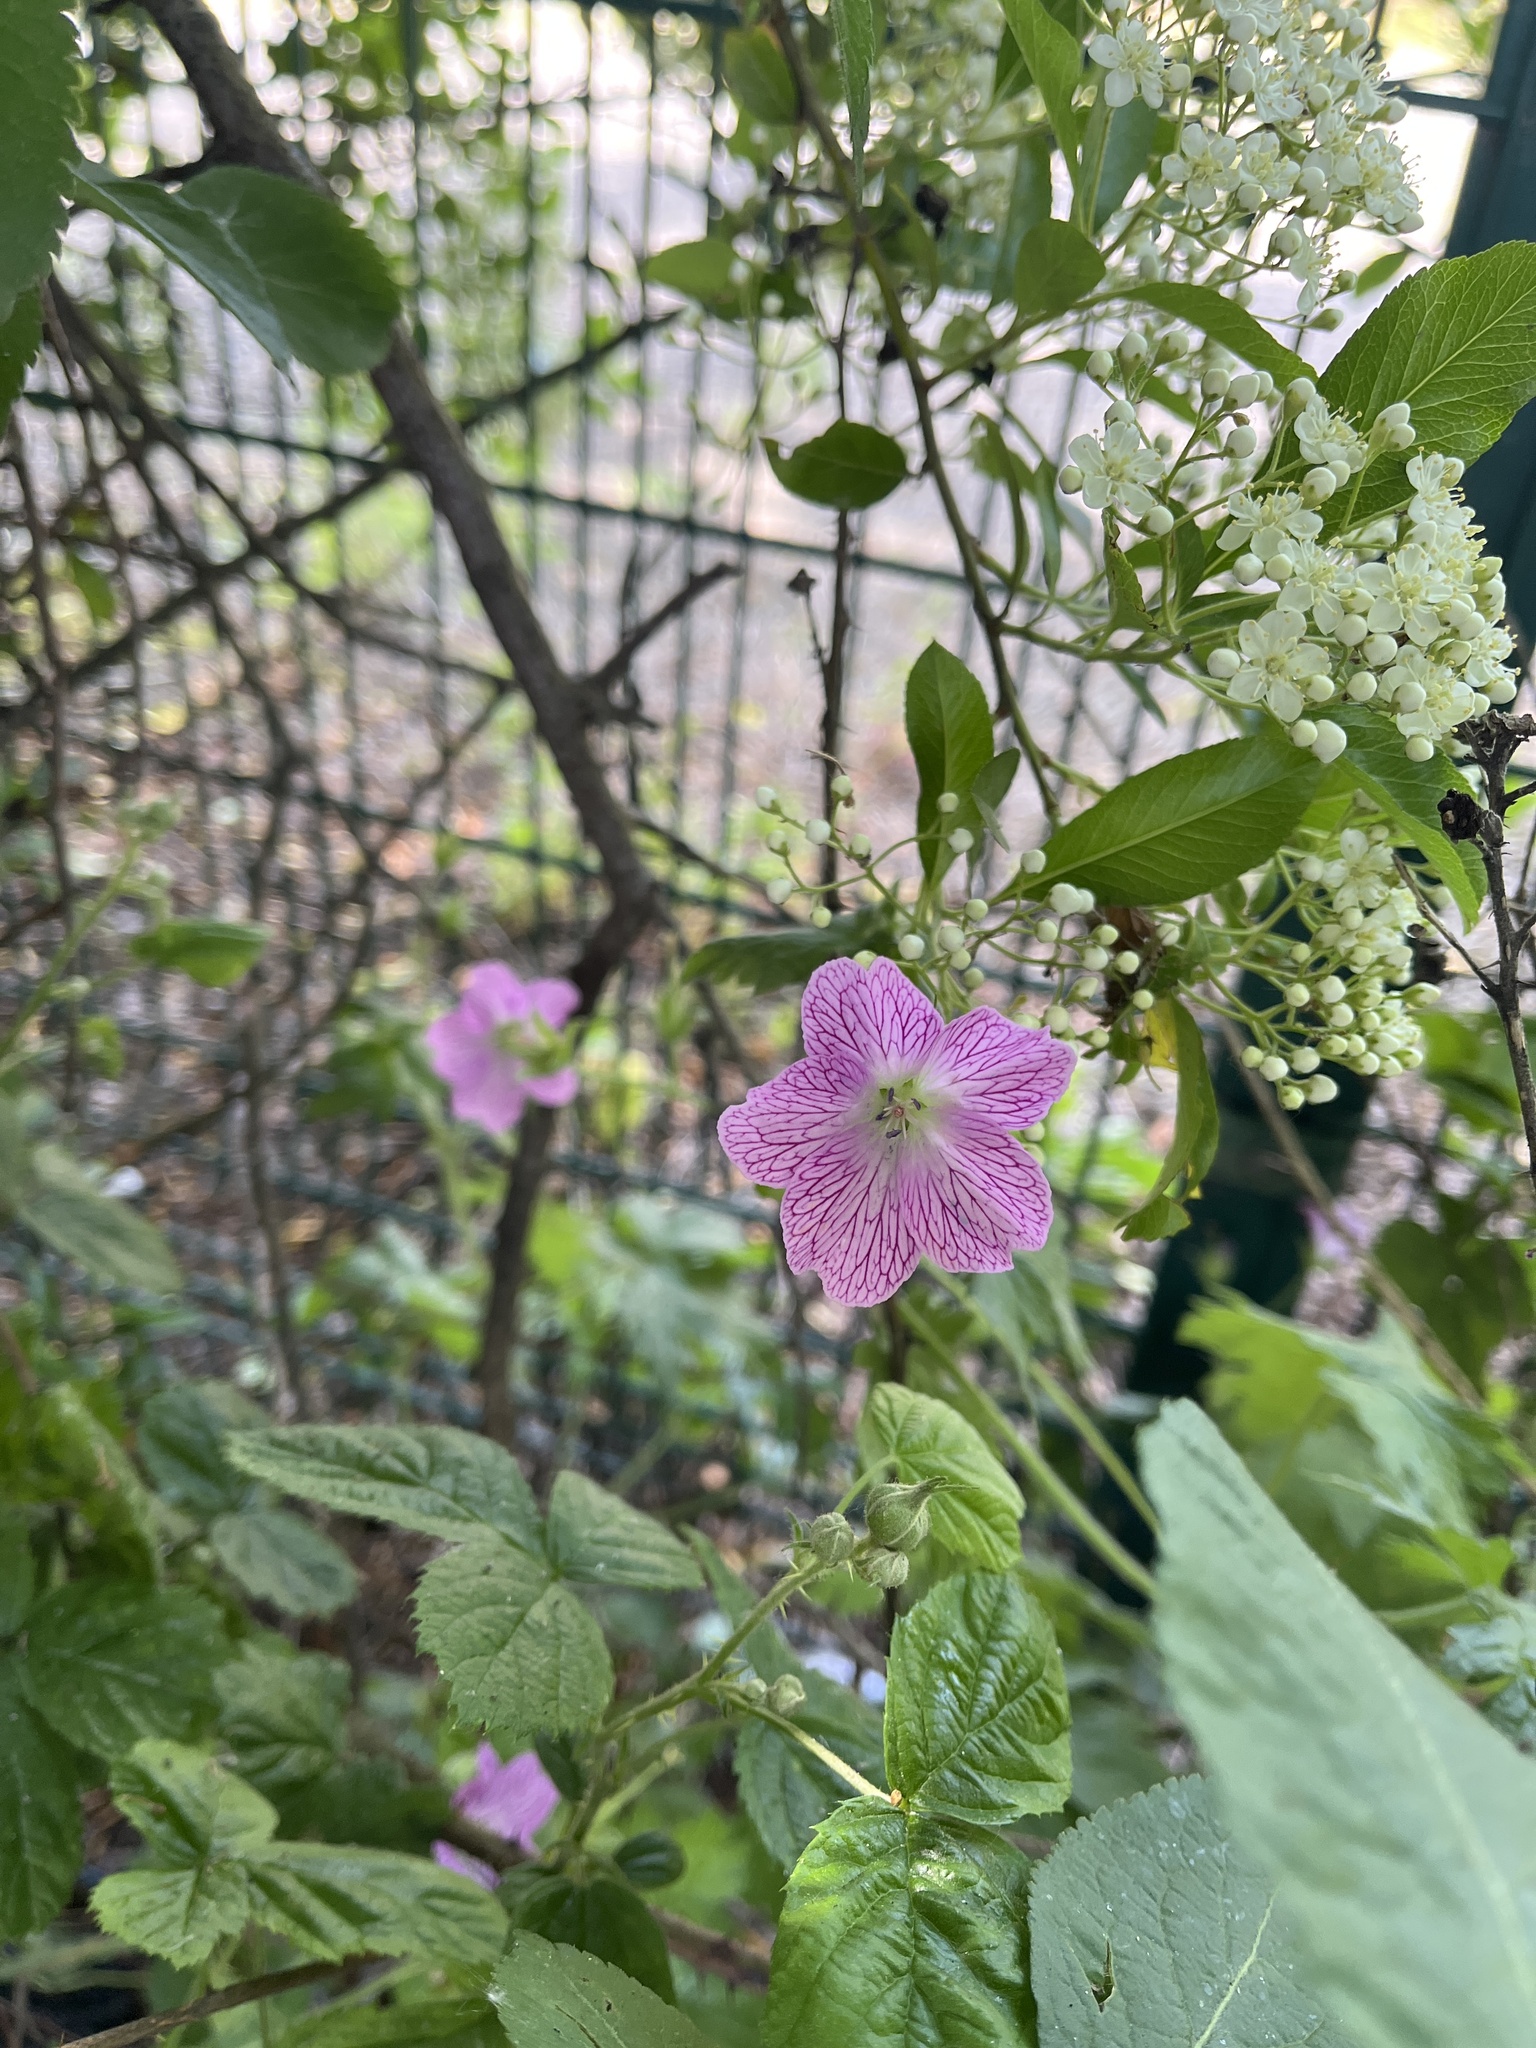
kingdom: Plantae
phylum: Tracheophyta
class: Magnoliopsida
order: Geraniales
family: Geraniaceae
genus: Geranium
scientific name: Geranium oxonianum
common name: Druce's crane's-bill
